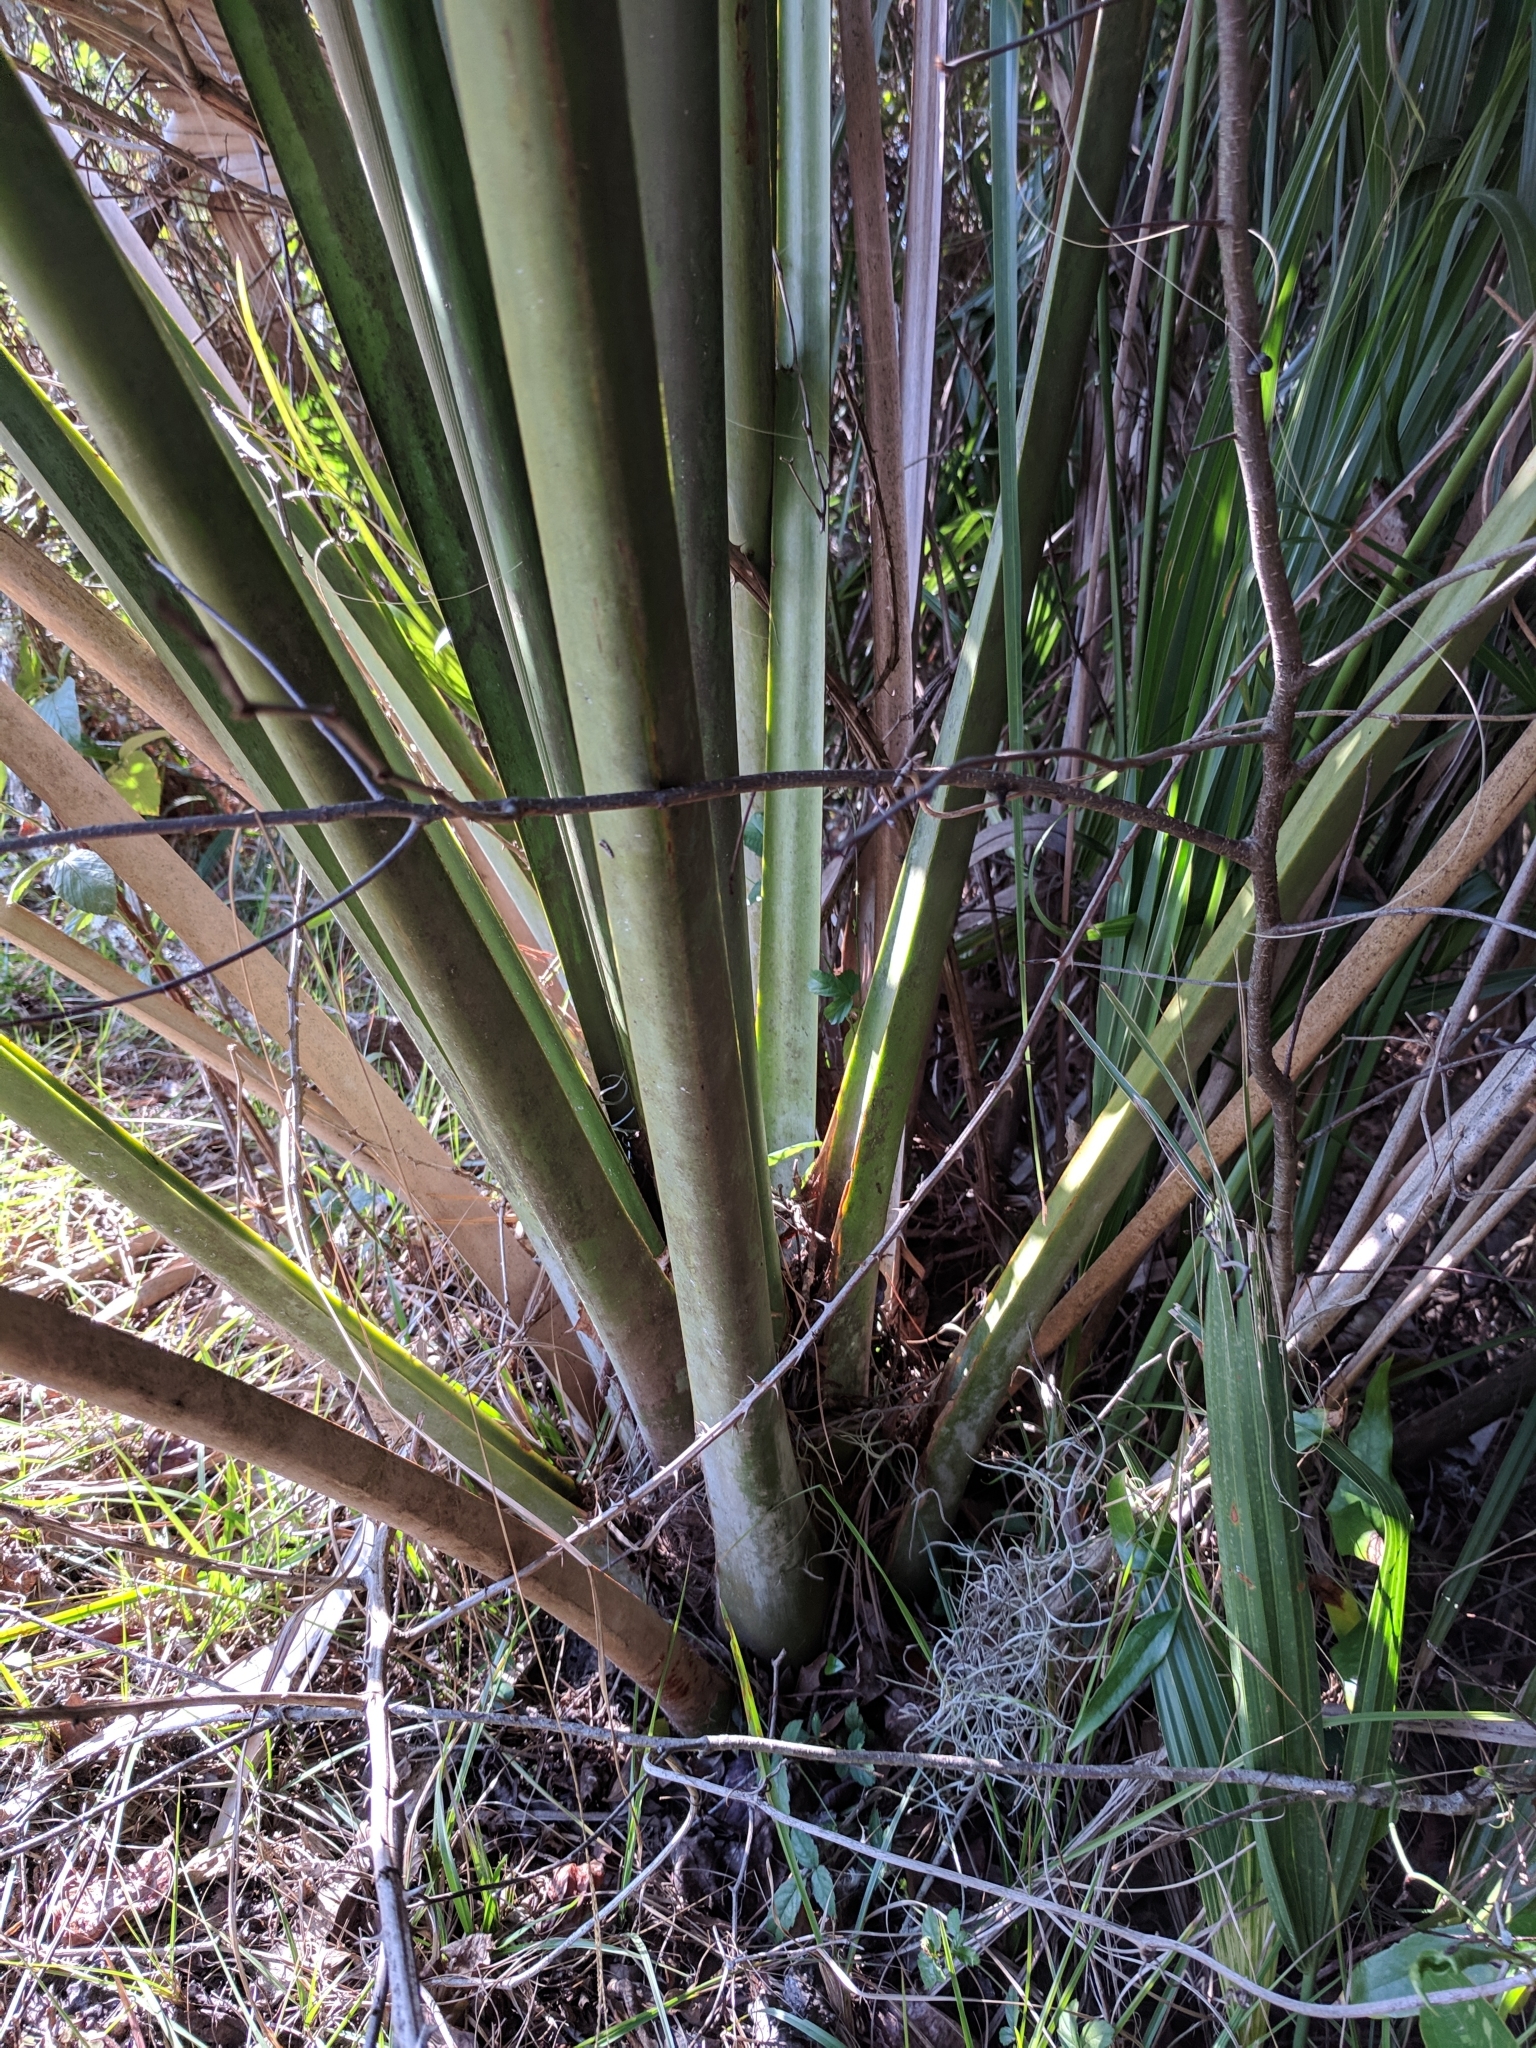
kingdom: Plantae
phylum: Tracheophyta
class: Liliopsida
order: Arecales
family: Arecaceae
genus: Sabal
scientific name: Sabal palmetto
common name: Blue palmetto
